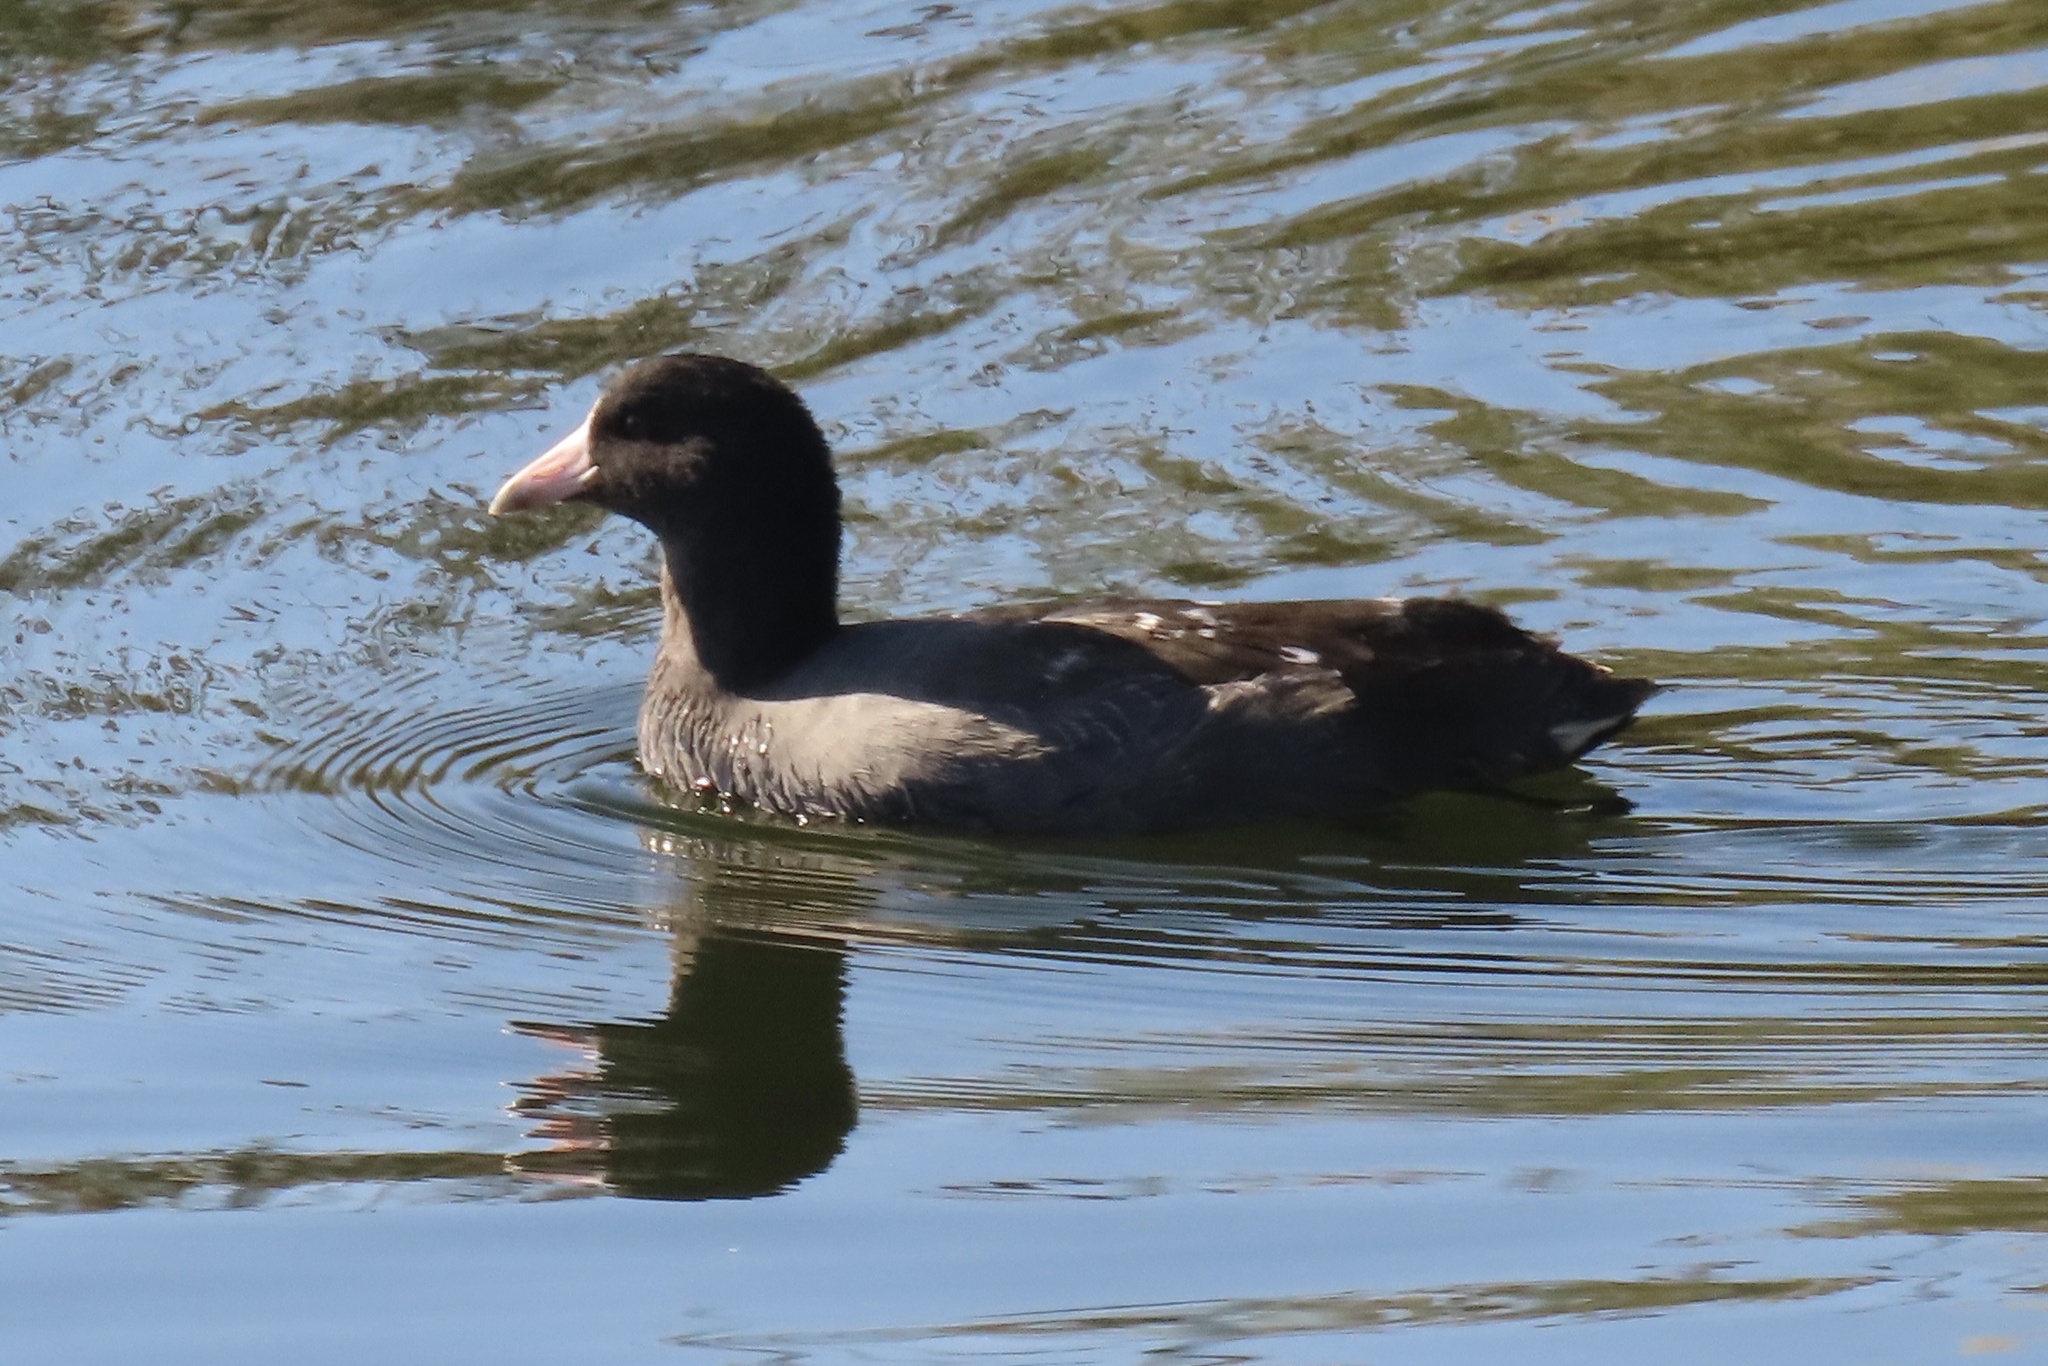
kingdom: Animalia
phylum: Chordata
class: Aves
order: Gruiformes
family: Rallidae
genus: Fulica
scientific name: Fulica americana
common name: American coot
